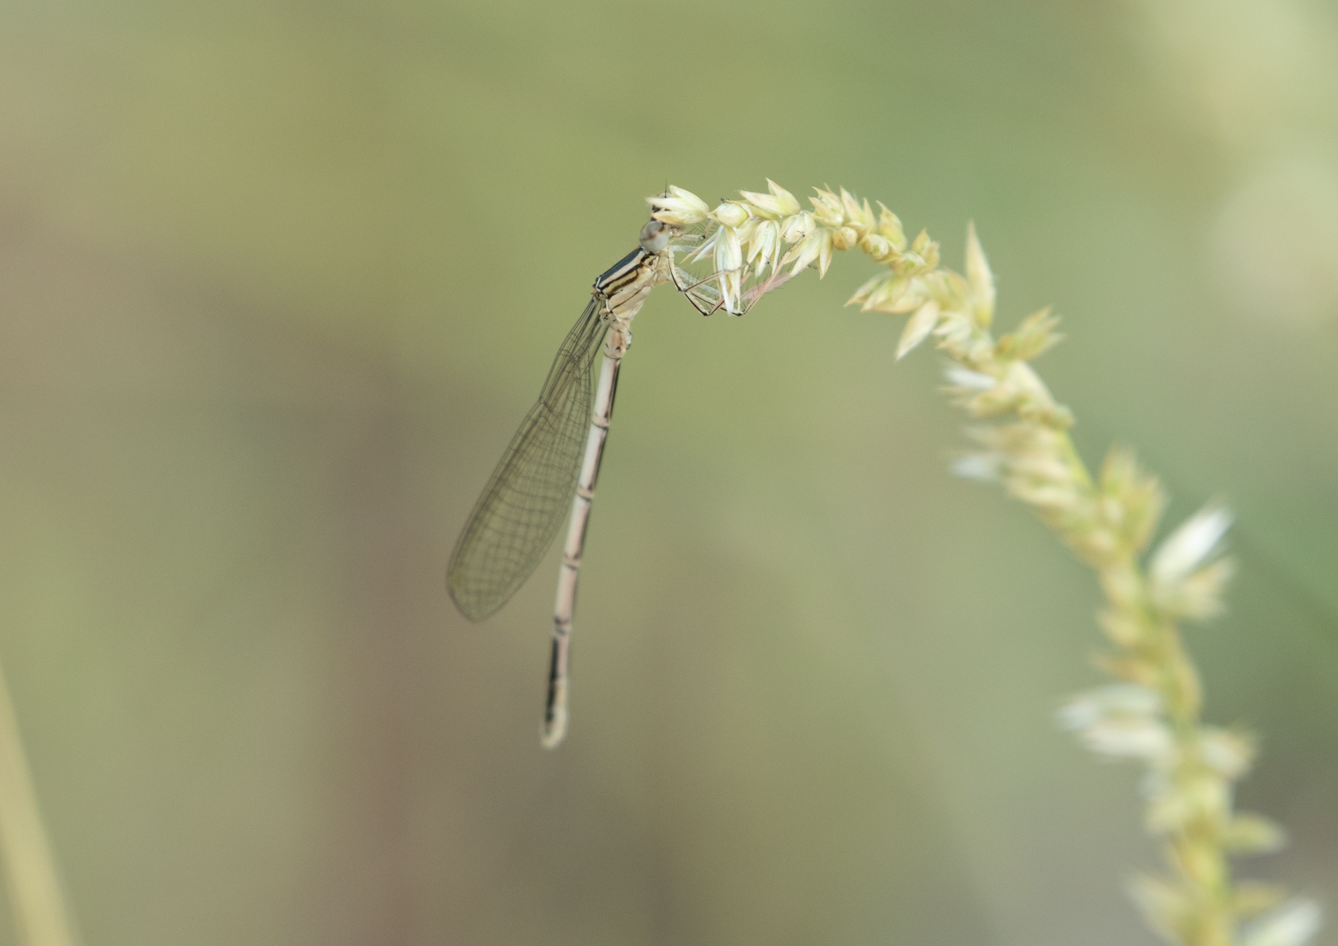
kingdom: Animalia
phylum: Arthropoda
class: Insecta
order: Odonata
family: Platycnemididae
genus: Platycnemis
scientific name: Platycnemis pennipes
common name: White-legged damselfly
